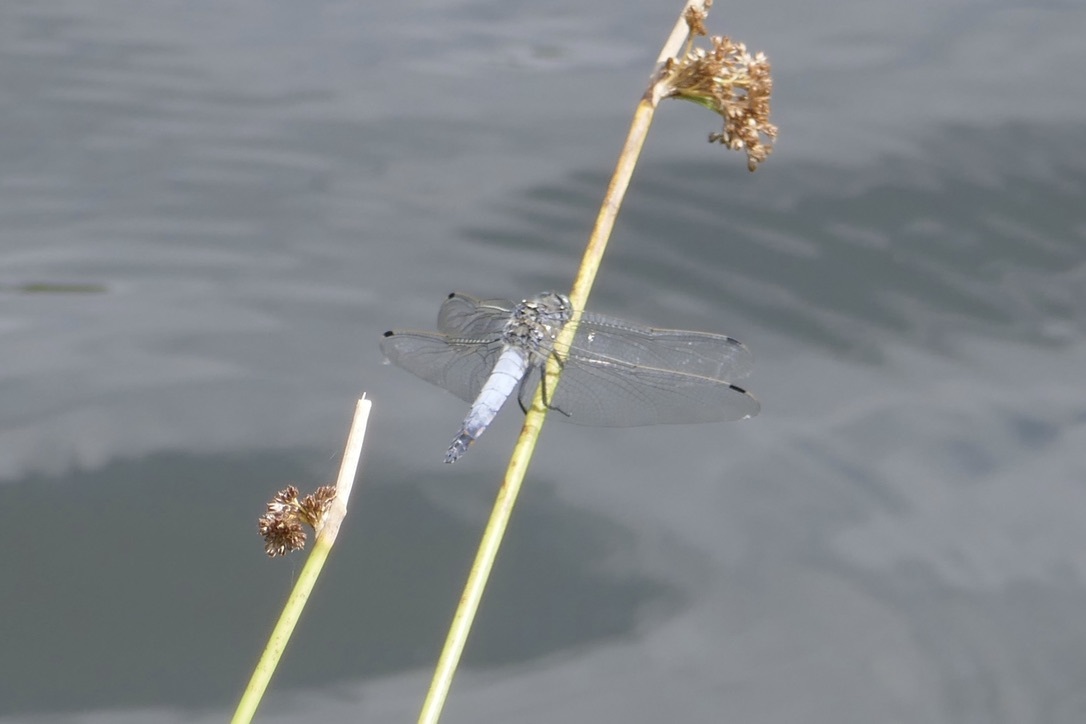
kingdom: Animalia
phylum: Arthropoda
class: Insecta
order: Odonata
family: Libellulidae
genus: Orthetrum
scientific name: Orthetrum cancellatum
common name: Black-tailed skimmer
